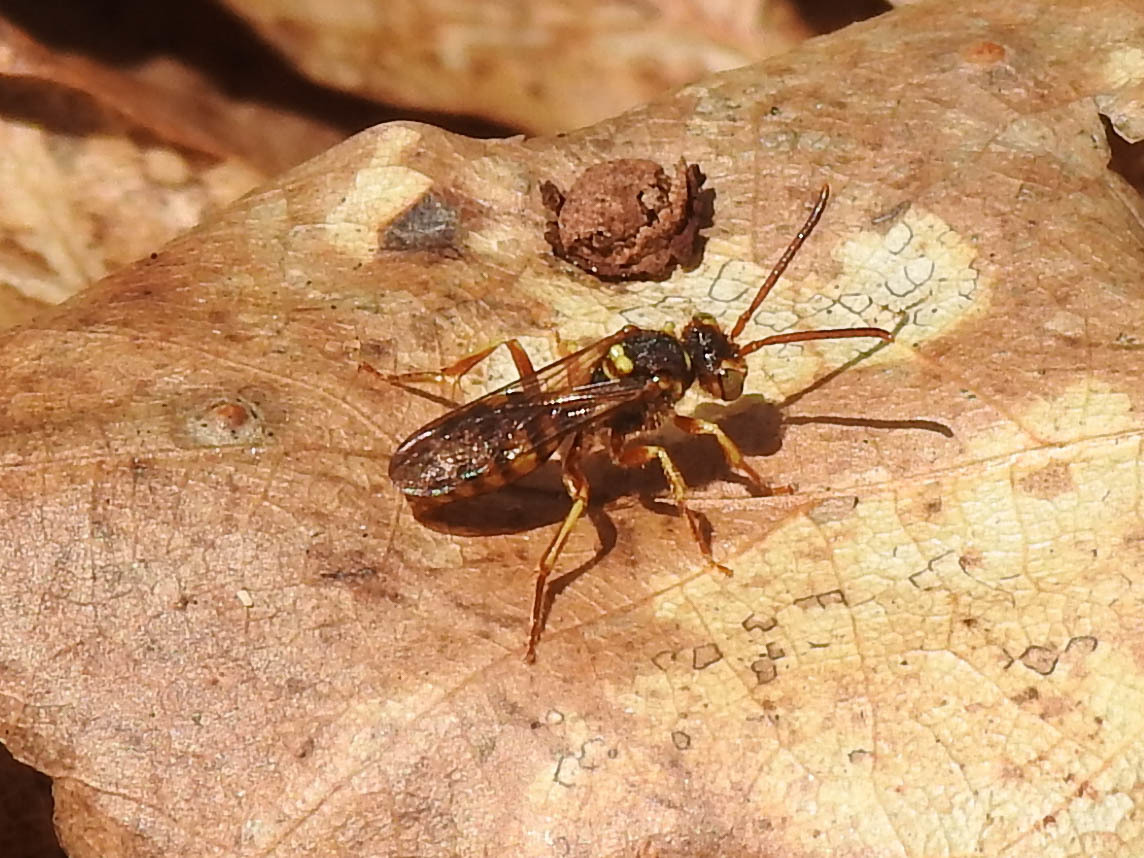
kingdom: Animalia
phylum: Arthropoda
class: Insecta
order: Hymenoptera
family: Apidae
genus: Nomada
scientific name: Nomada luteoloides
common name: Black-and-yellow nomad bee
